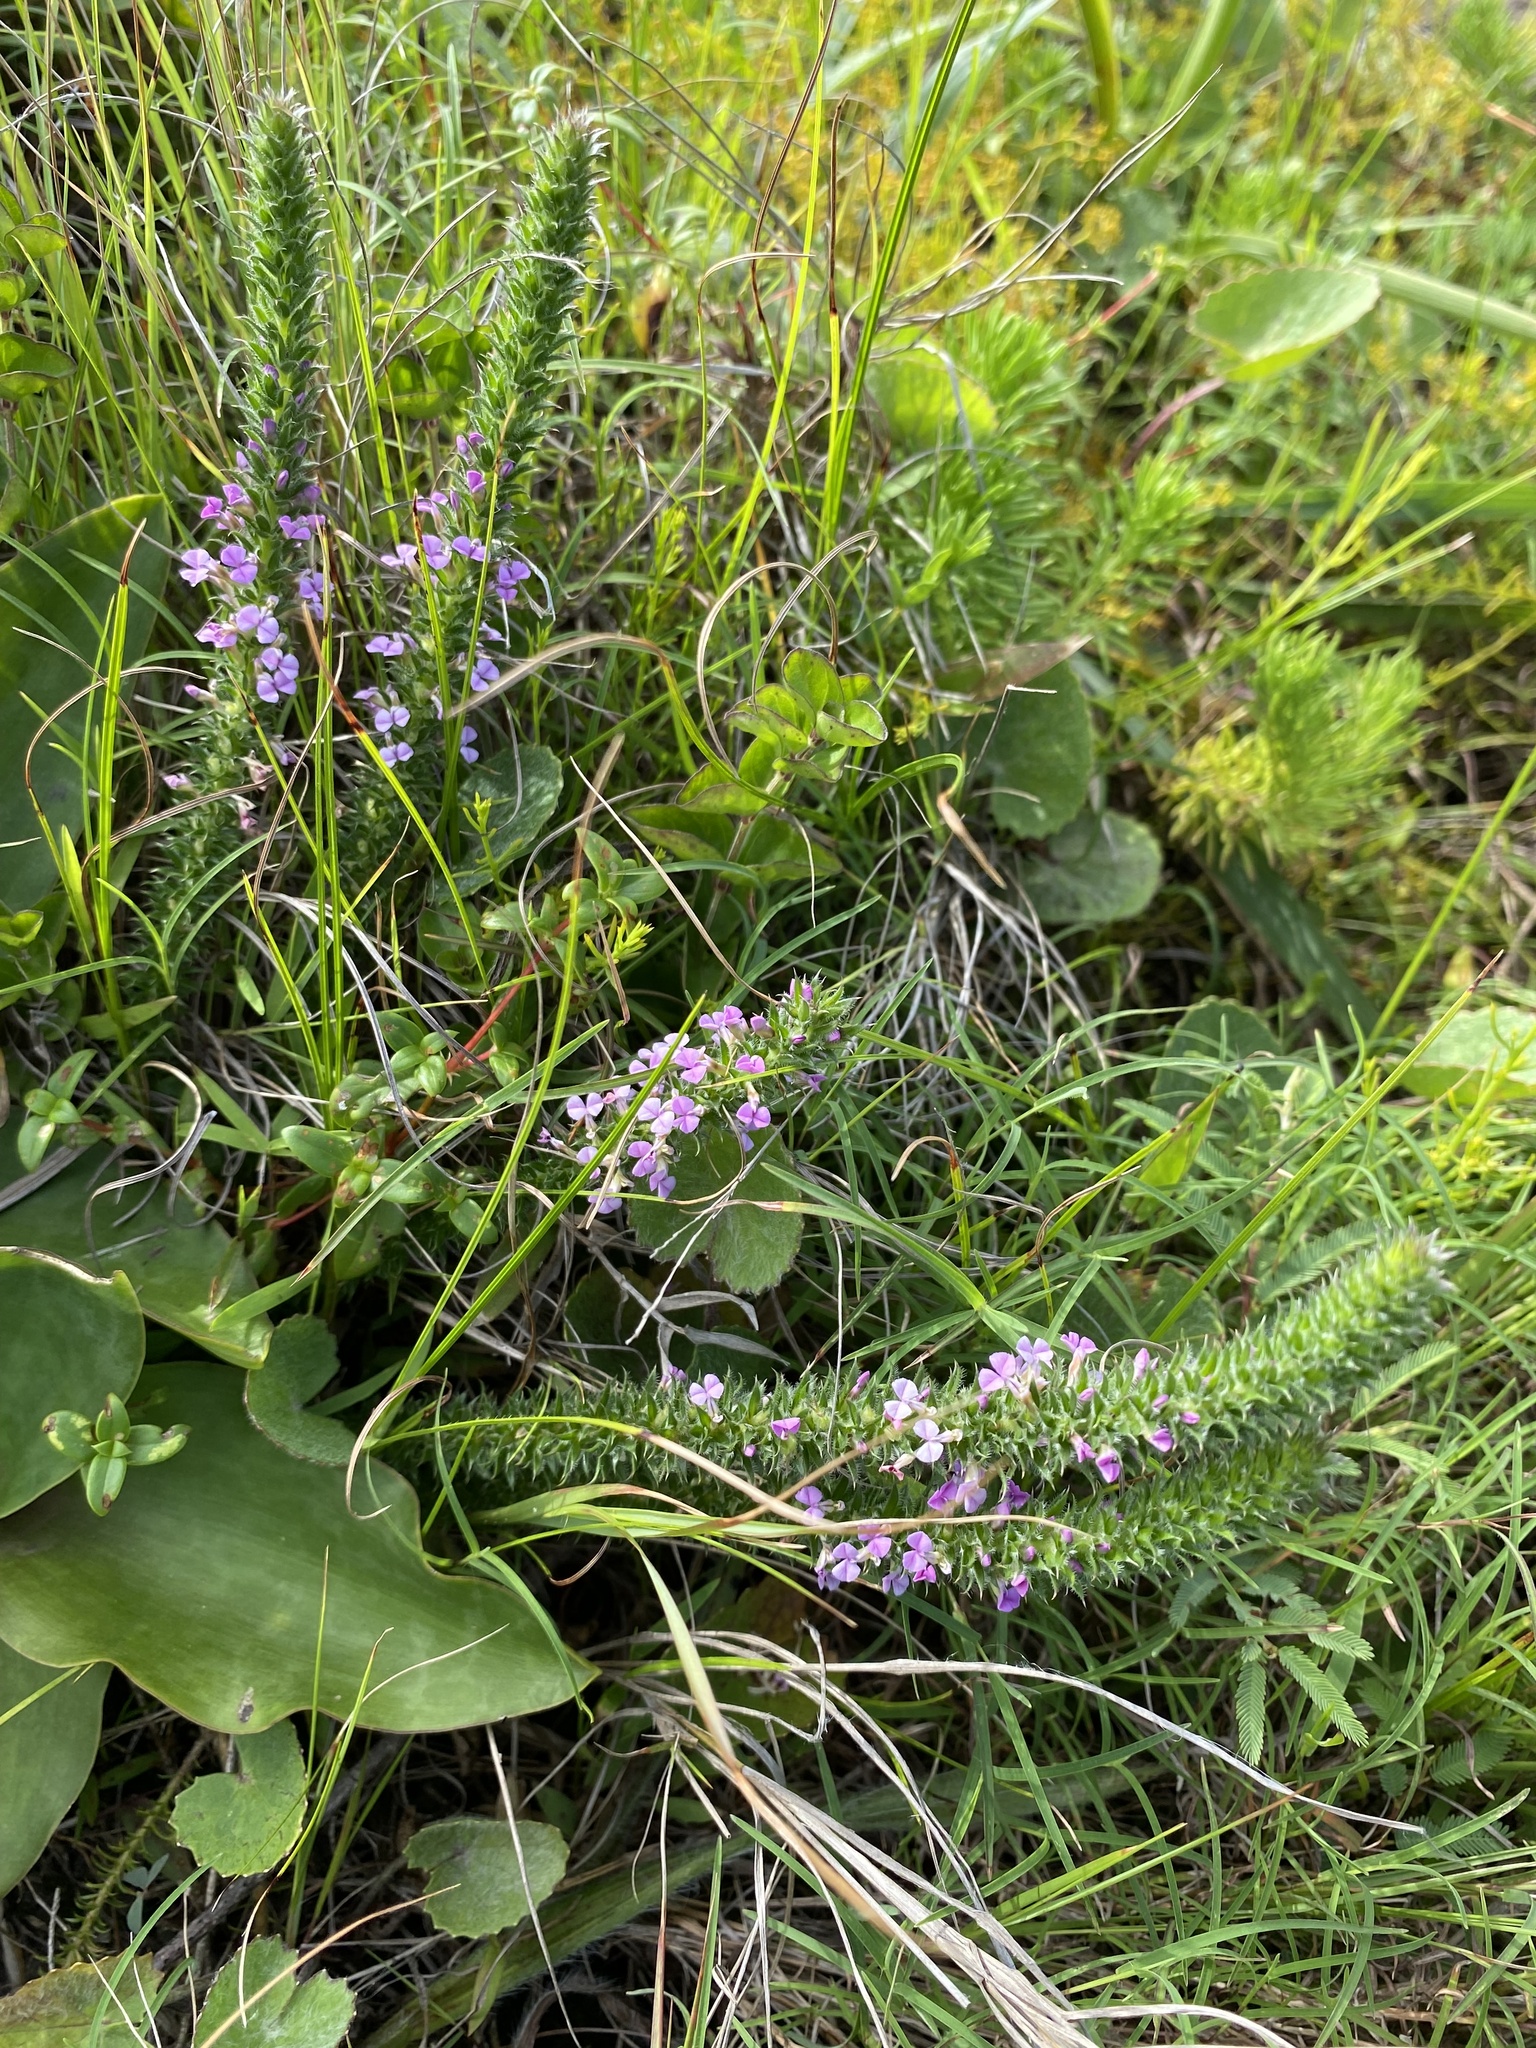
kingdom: Plantae
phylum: Tracheophyta
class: Magnoliopsida
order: Fabales
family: Polygalaceae
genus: Muraltia
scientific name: Muraltia lancifolia
